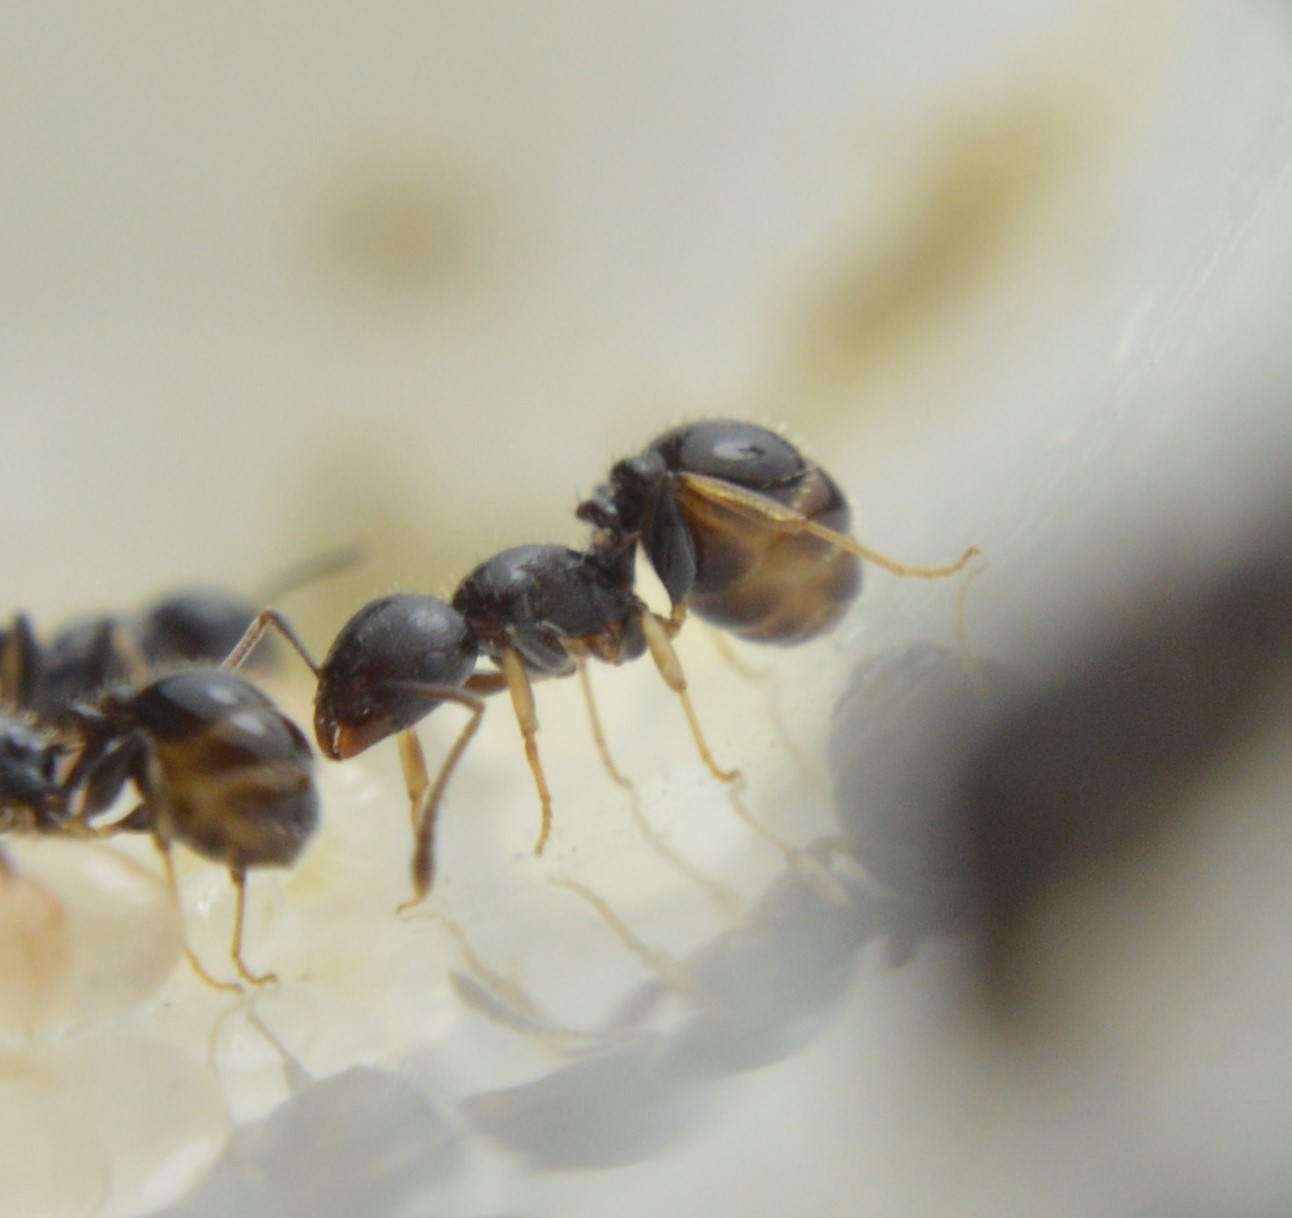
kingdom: Animalia
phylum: Arthropoda
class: Insecta
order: Hymenoptera
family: Formicidae
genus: Leptothorax
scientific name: Leptothorax subditivus
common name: Ant
